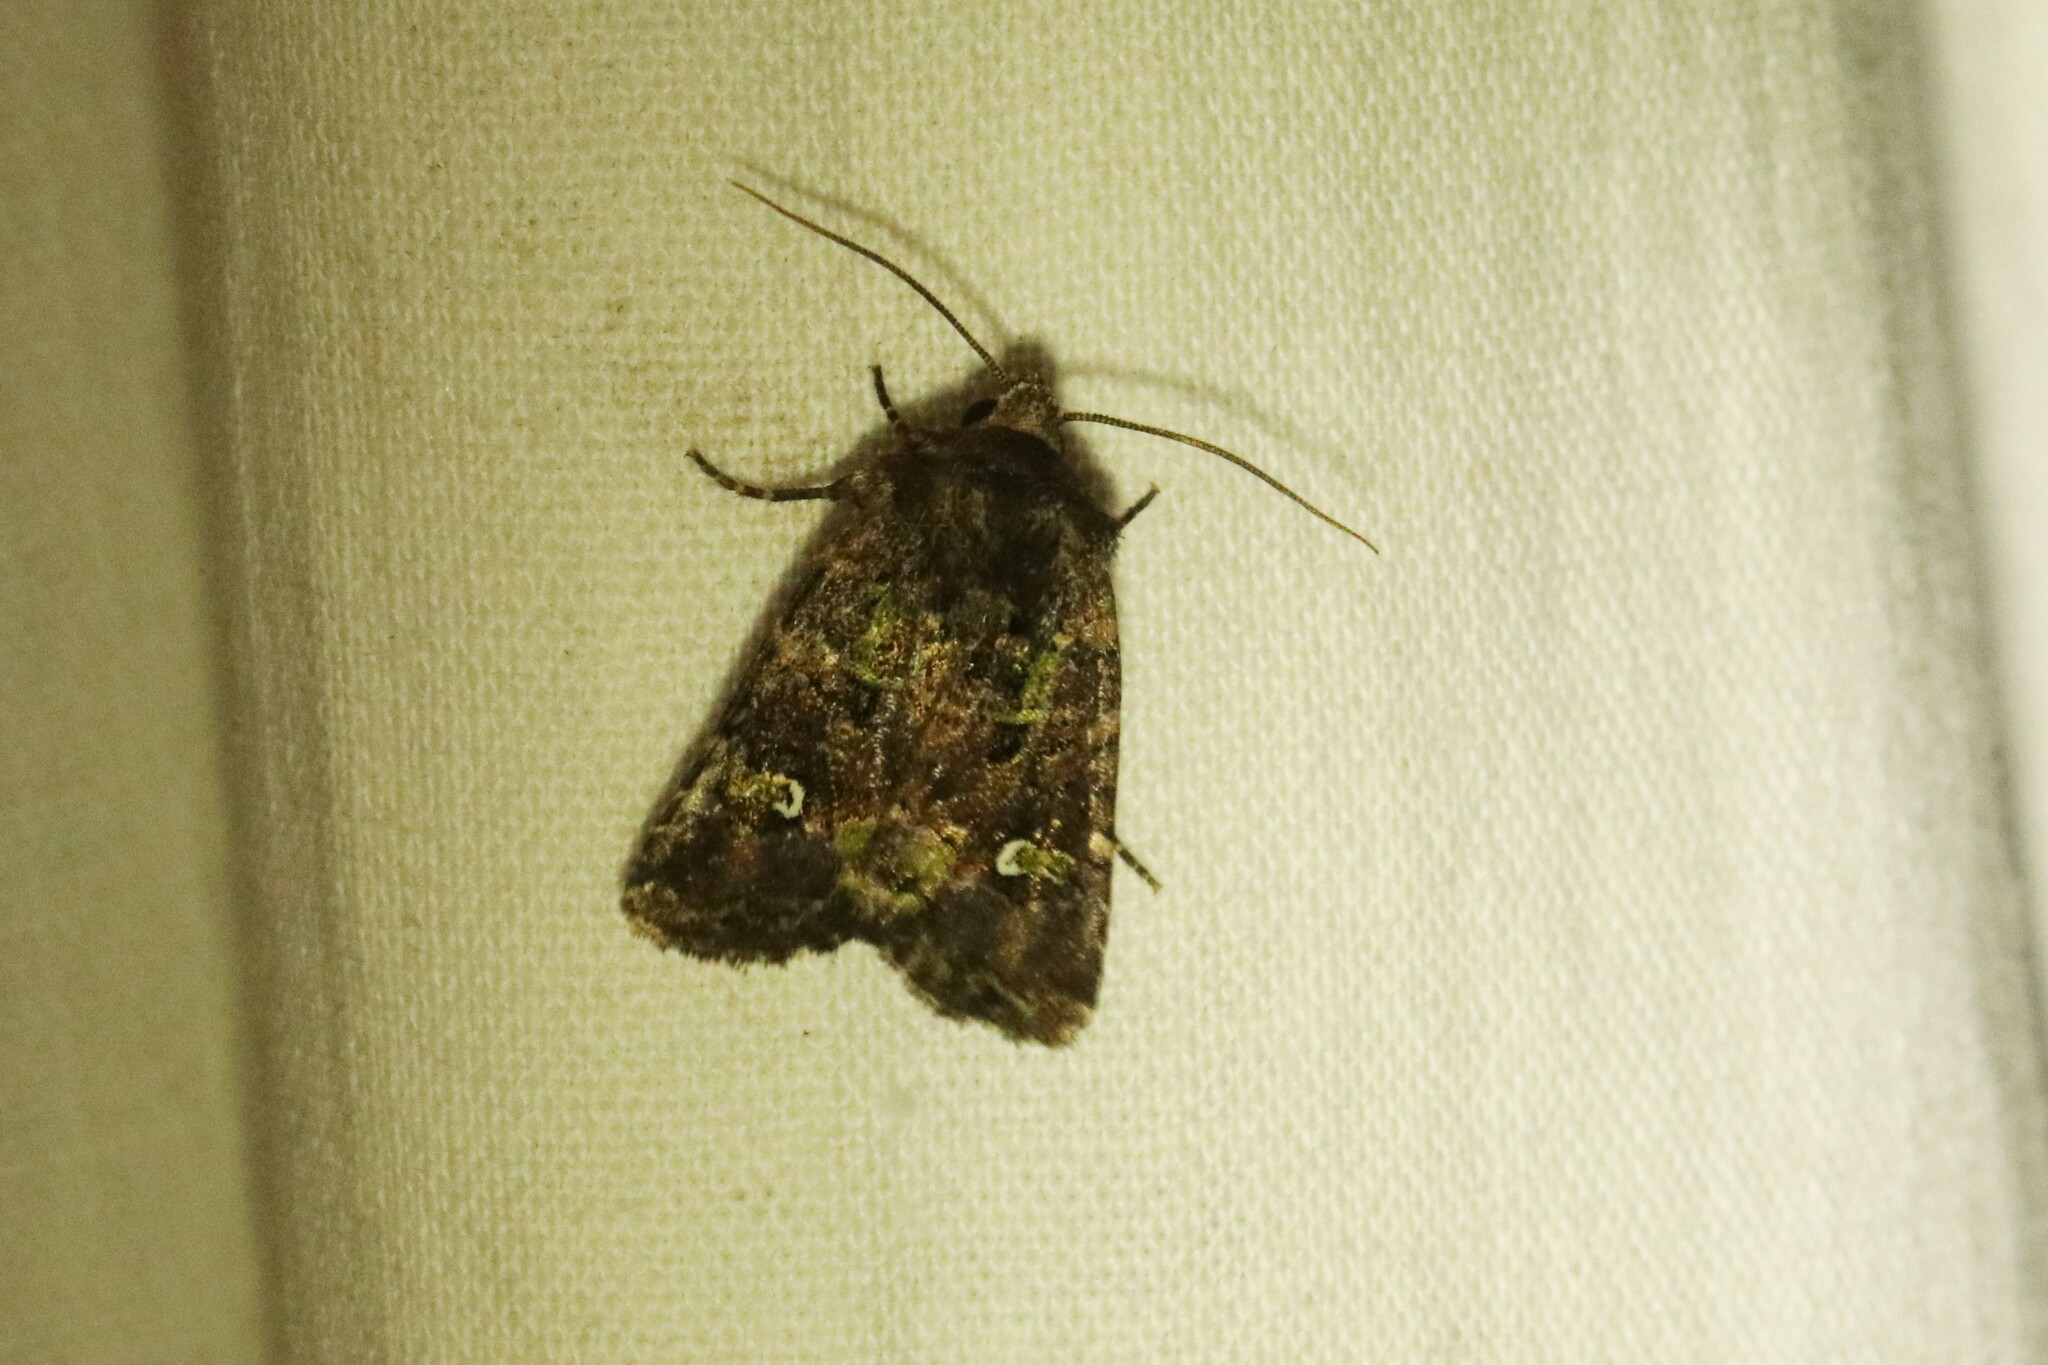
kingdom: Animalia
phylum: Arthropoda
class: Insecta
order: Lepidoptera
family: Noctuidae
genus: Lacinipolia
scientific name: Lacinipolia renigera
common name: Kidney-spotted minor
